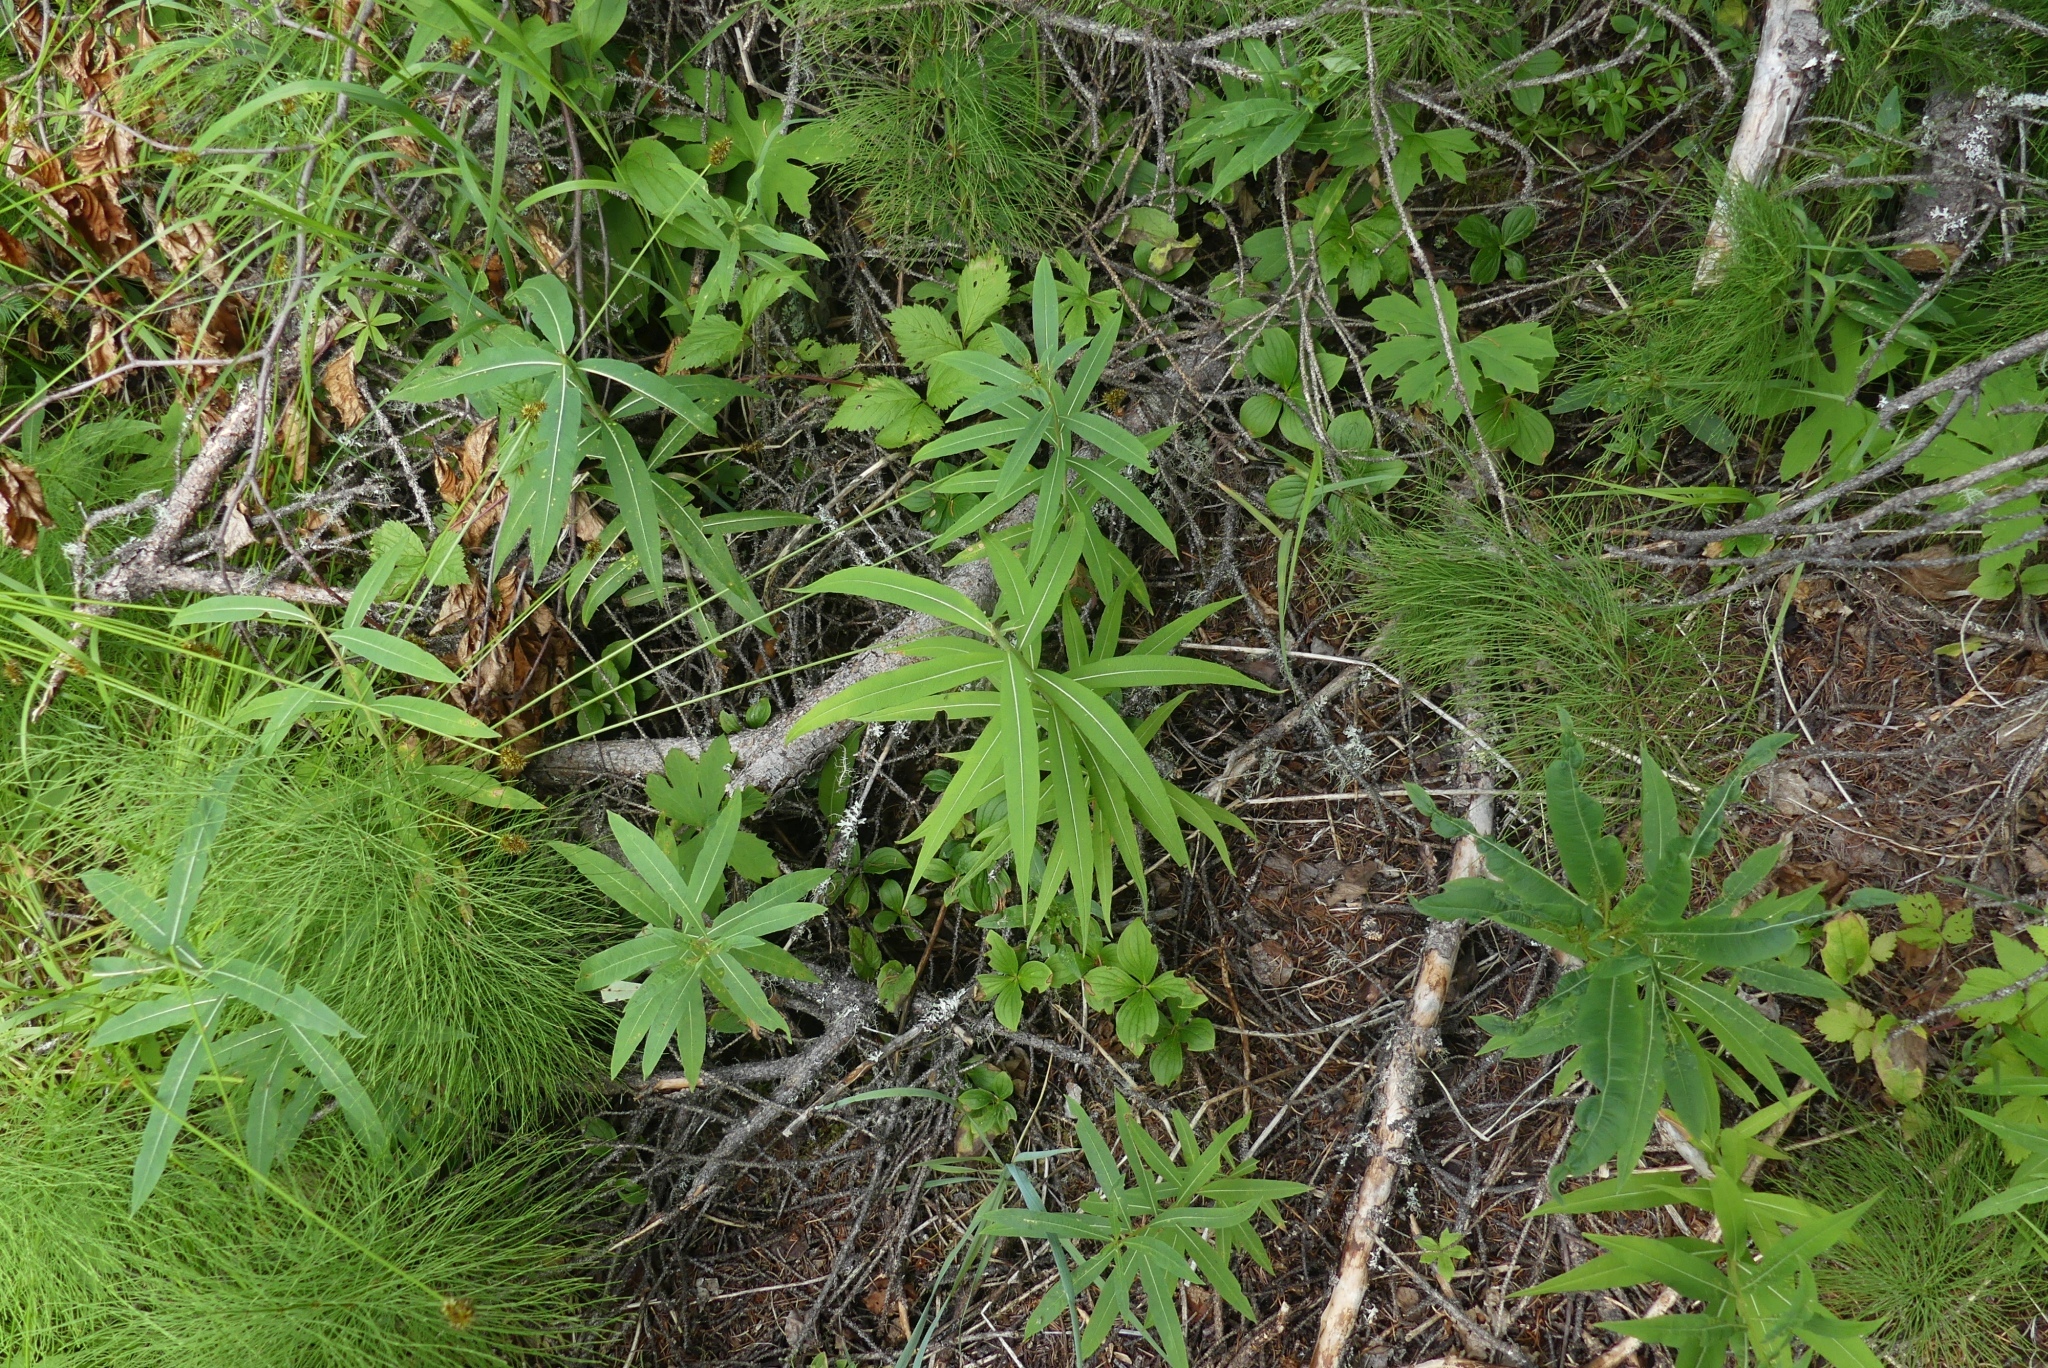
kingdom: Plantae
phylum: Tracheophyta
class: Magnoliopsida
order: Myrtales
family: Onagraceae
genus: Chamaenerion
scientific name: Chamaenerion angustifolium
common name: Fireweed
